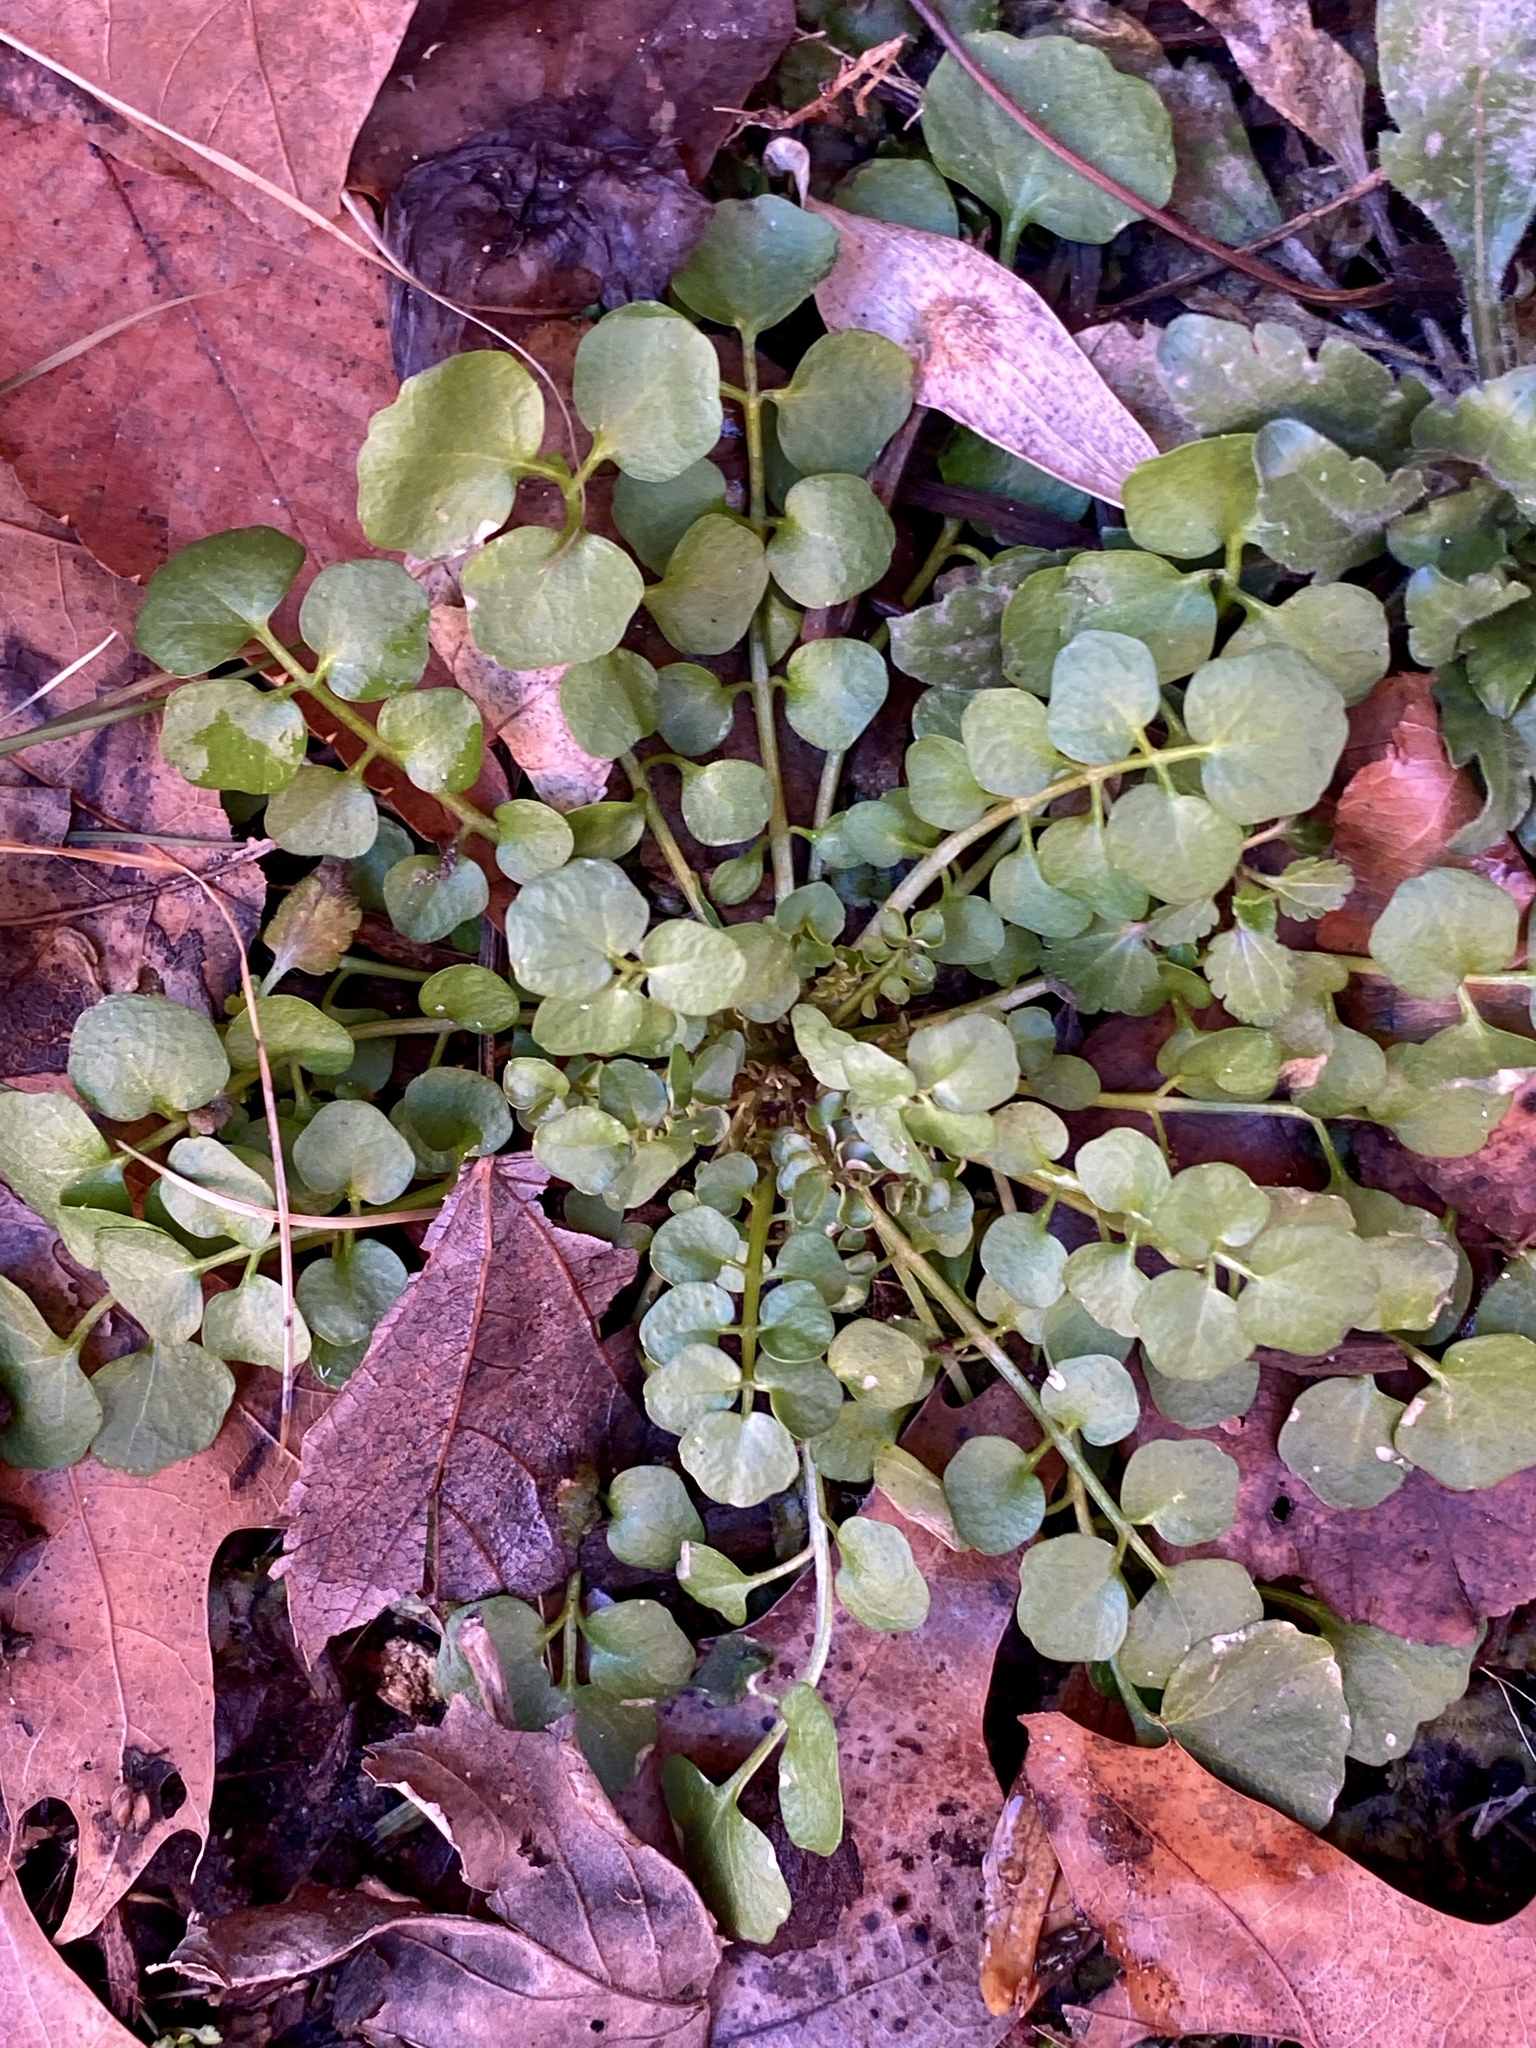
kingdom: Plantae
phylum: Tracheophyta
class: Magnoliopsida
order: Brassicales
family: Brassicaceae
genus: Cardamine
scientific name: Cardamine hirsuta
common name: Hairy bittercress
